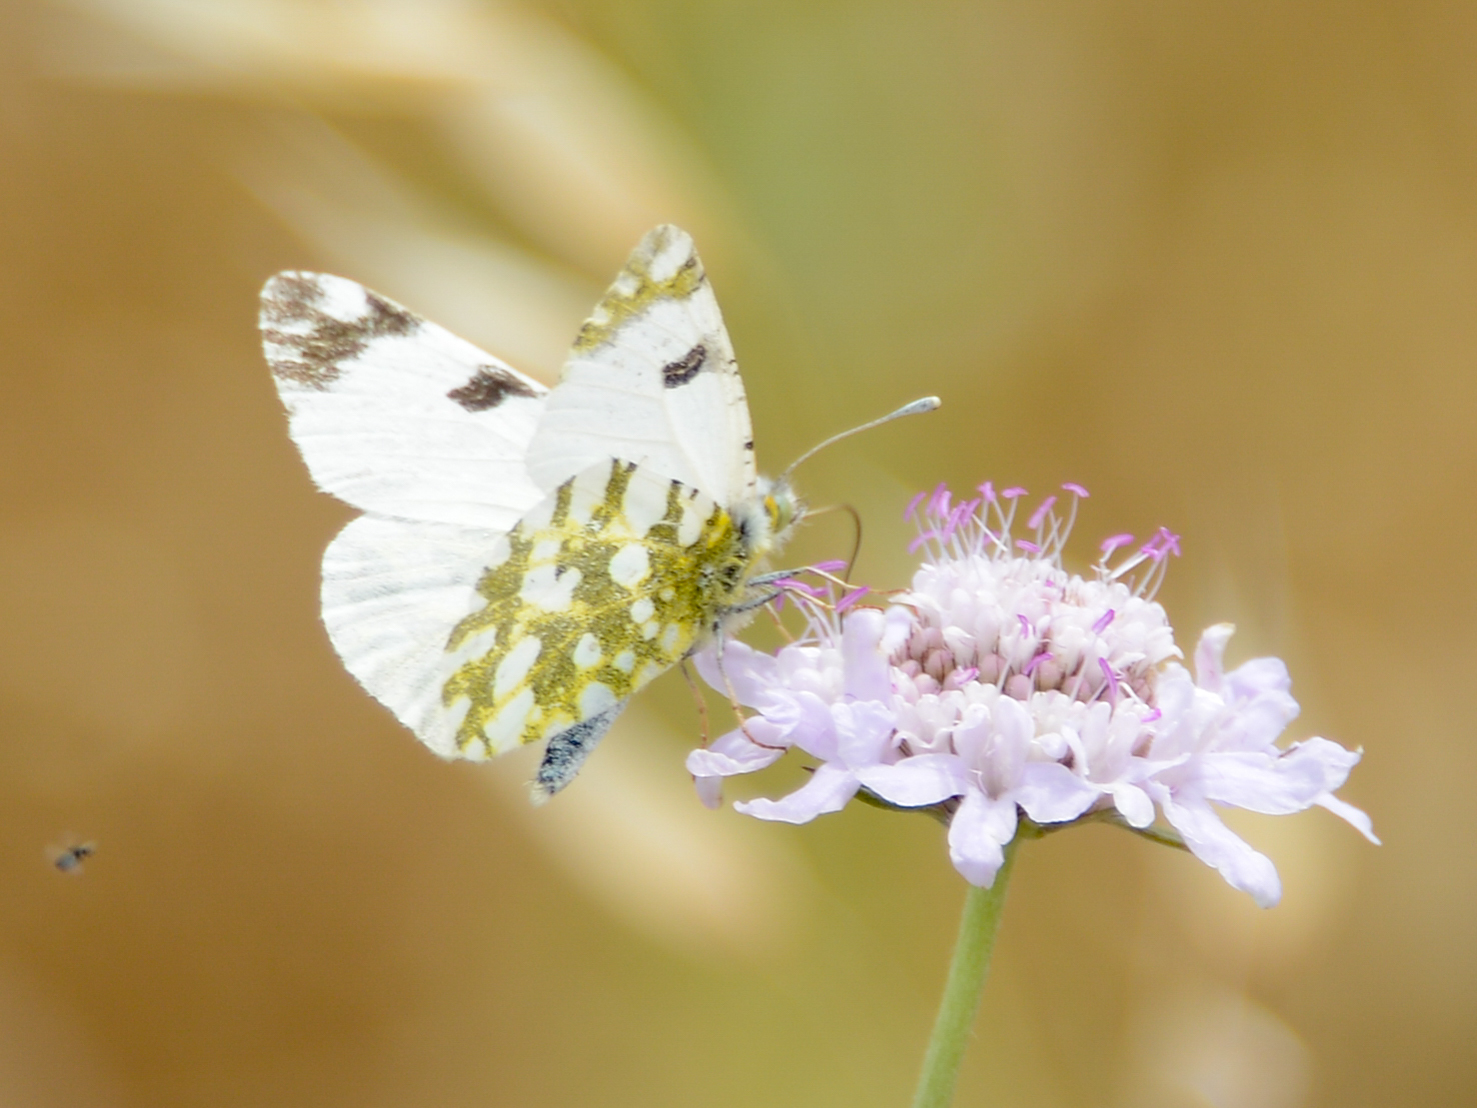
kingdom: Animalia
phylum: Arthropoda
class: Insecta
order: Lepidoptera
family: Pieridae
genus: Euchloe
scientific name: Euchloe ausonia
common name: Eastern dappled white
